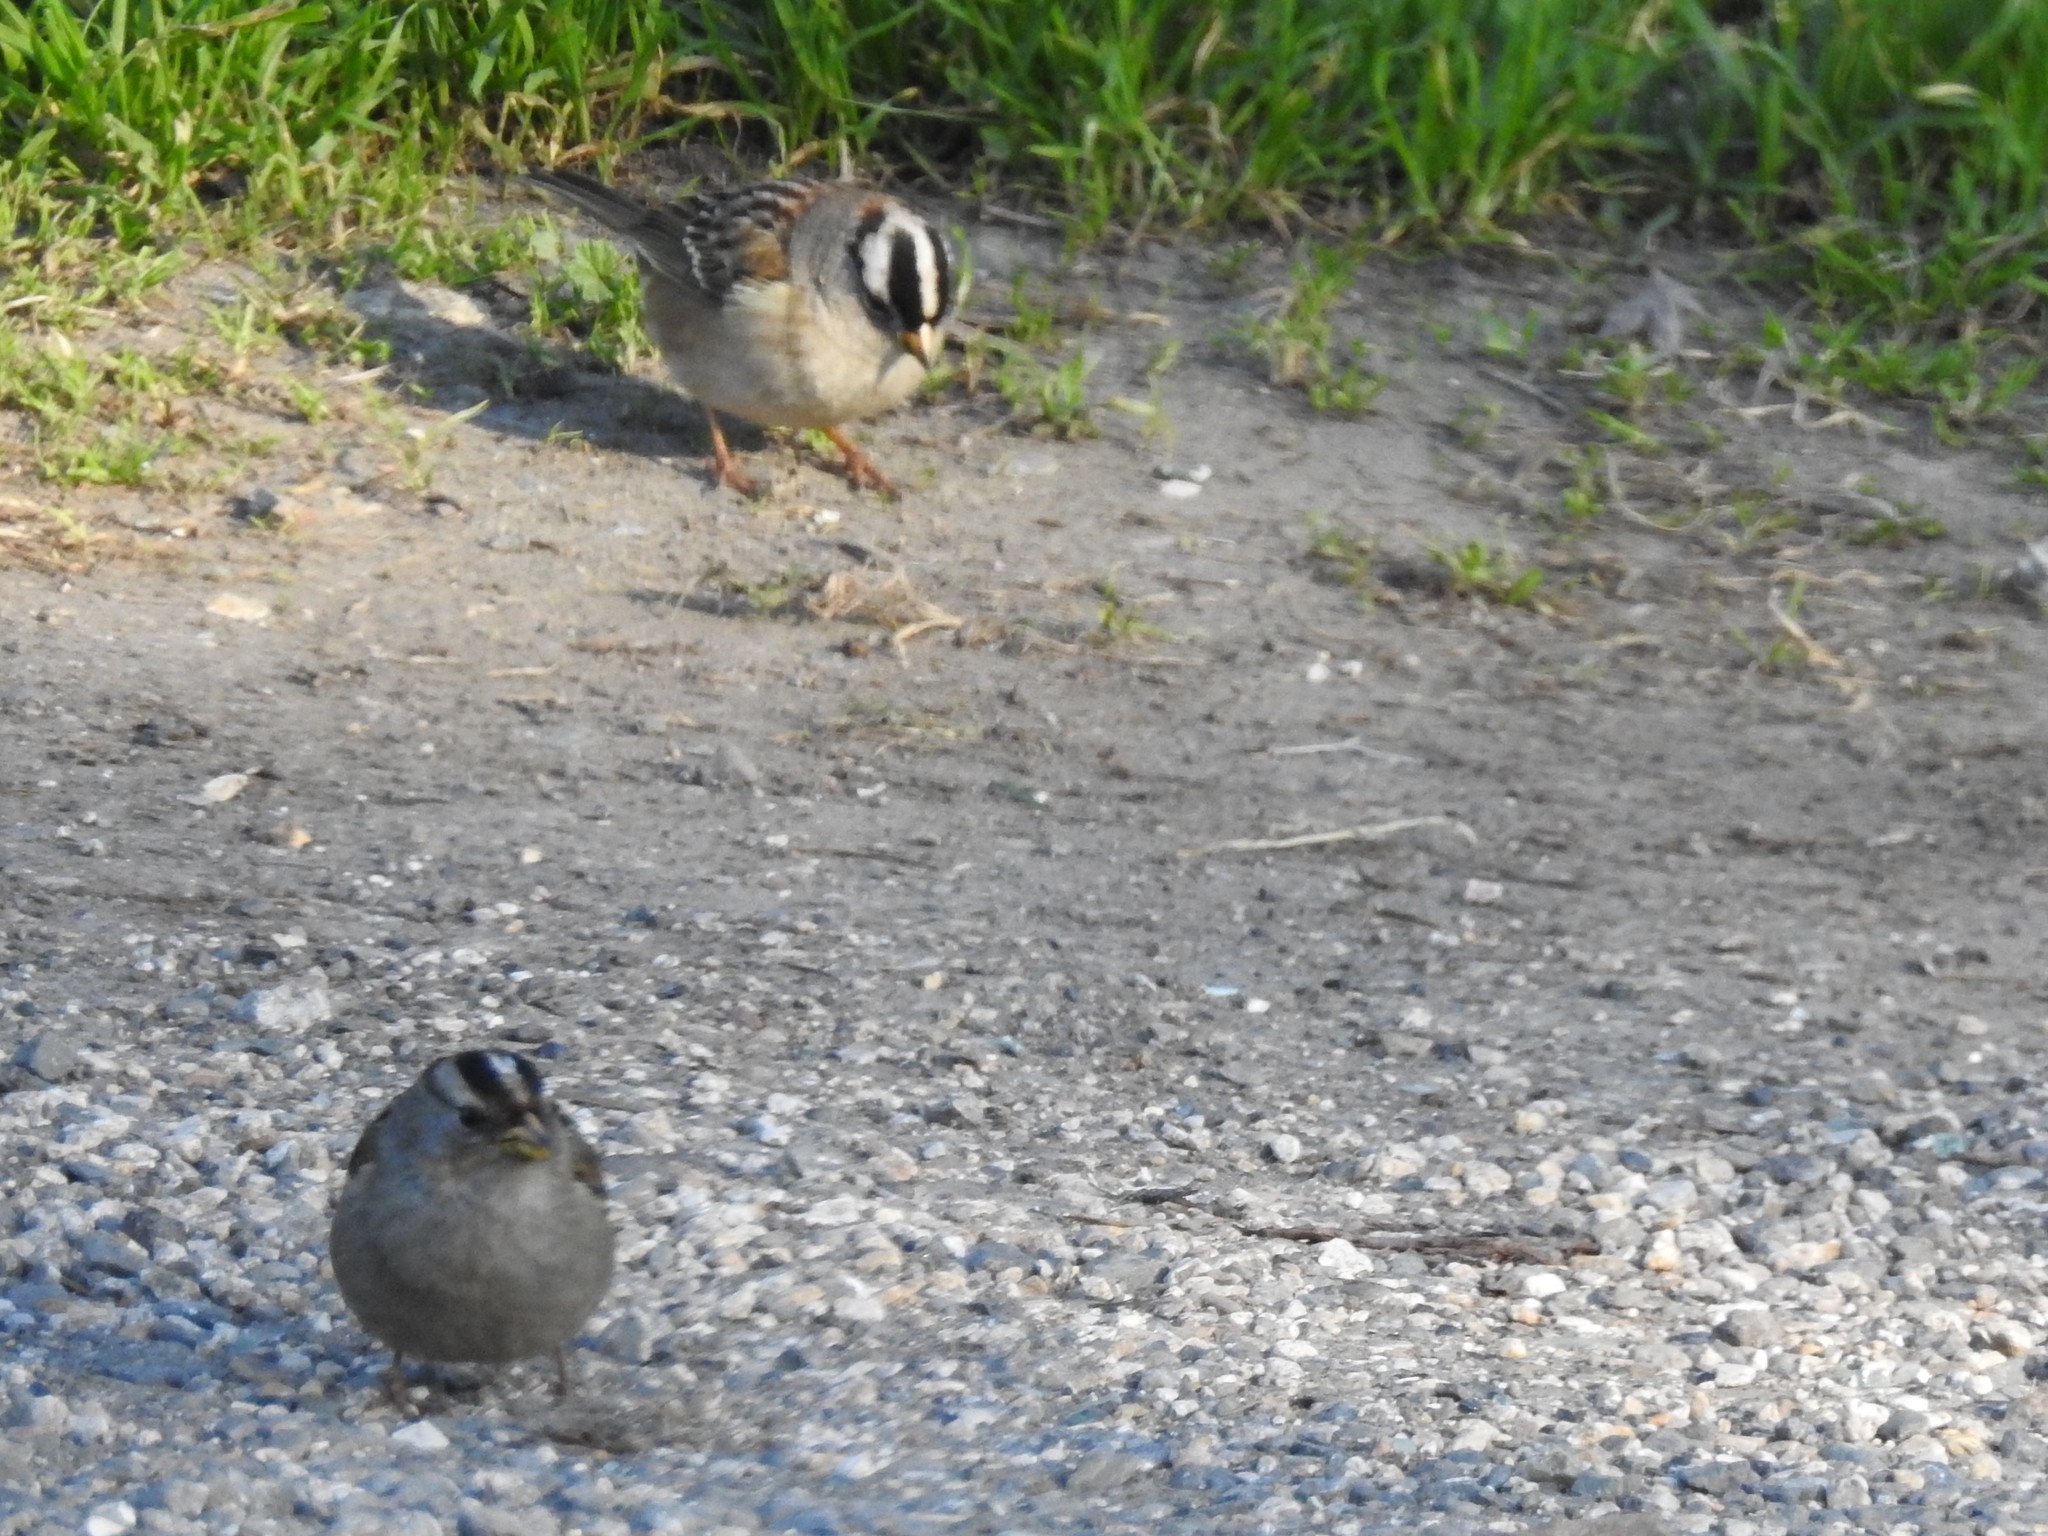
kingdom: Animalia
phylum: Chordata
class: Aves
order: Passeriformes
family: Passerellidae
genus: Zonotrichia
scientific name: Zonotrichia leucophrys
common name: White-crowned sparrow
